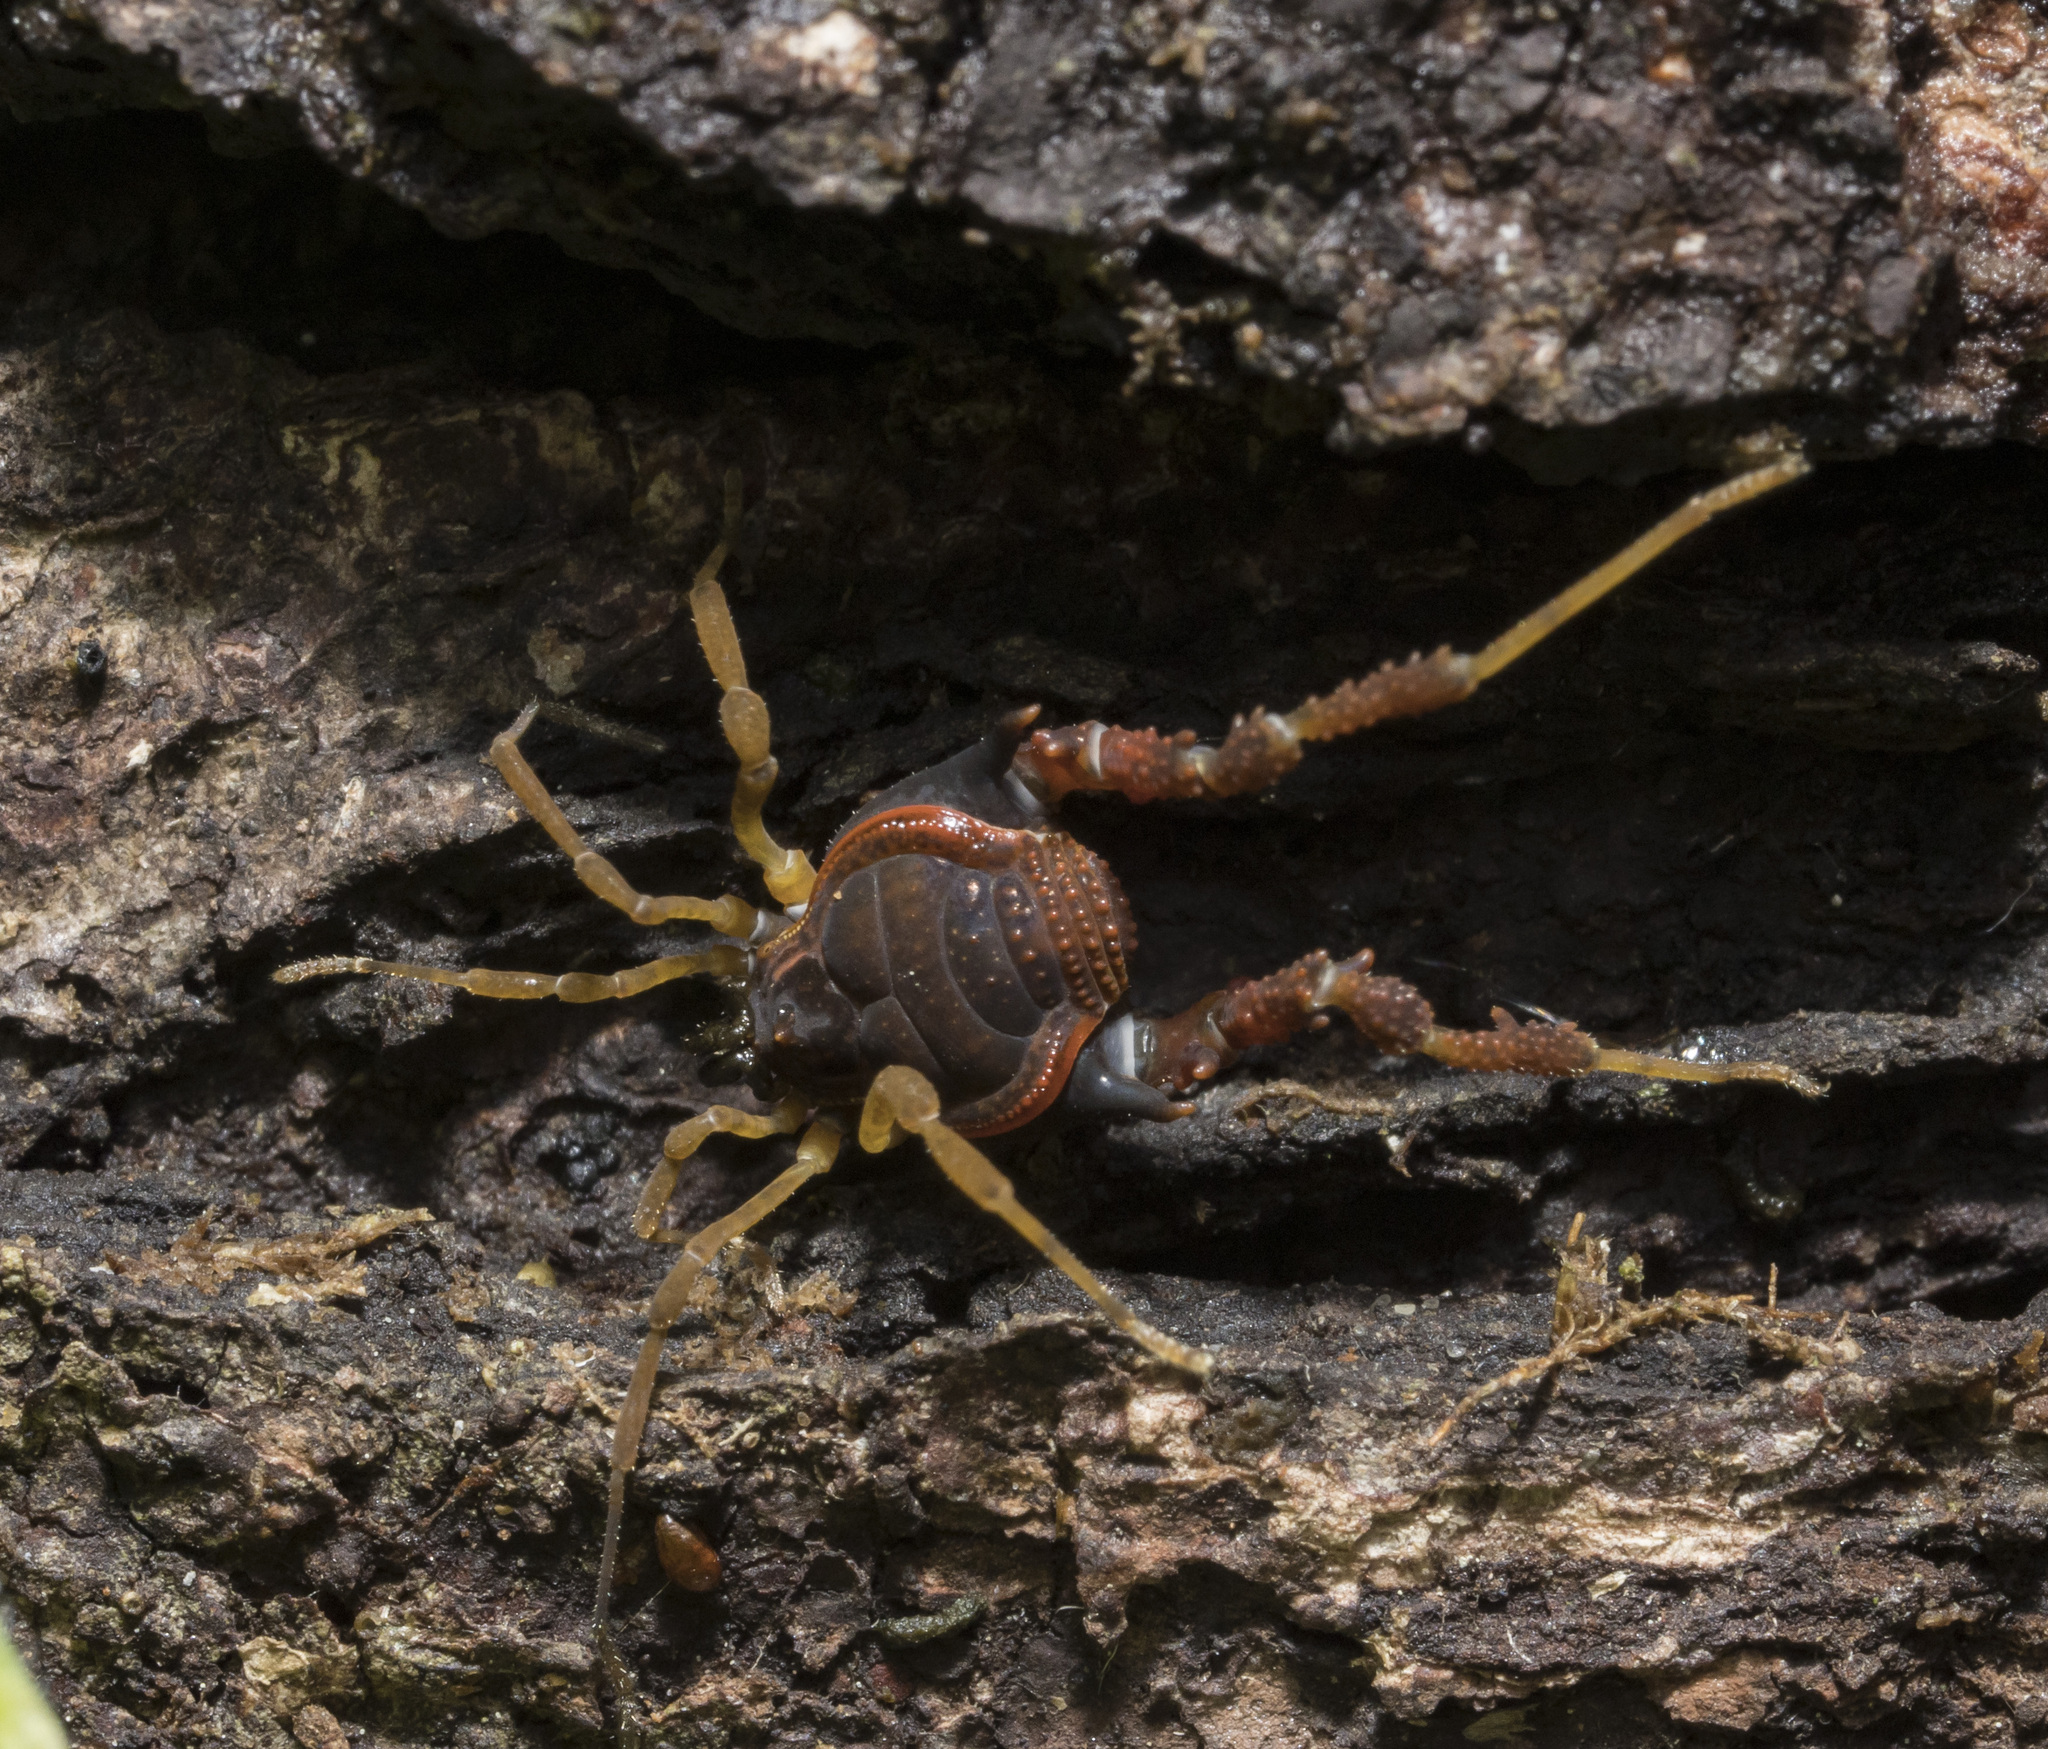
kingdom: Animalia
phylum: Arthropoda
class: Arachnida
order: Opiliones
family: Gonyleptidae
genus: Metagyndes
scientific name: Metagyndes pulchellus
